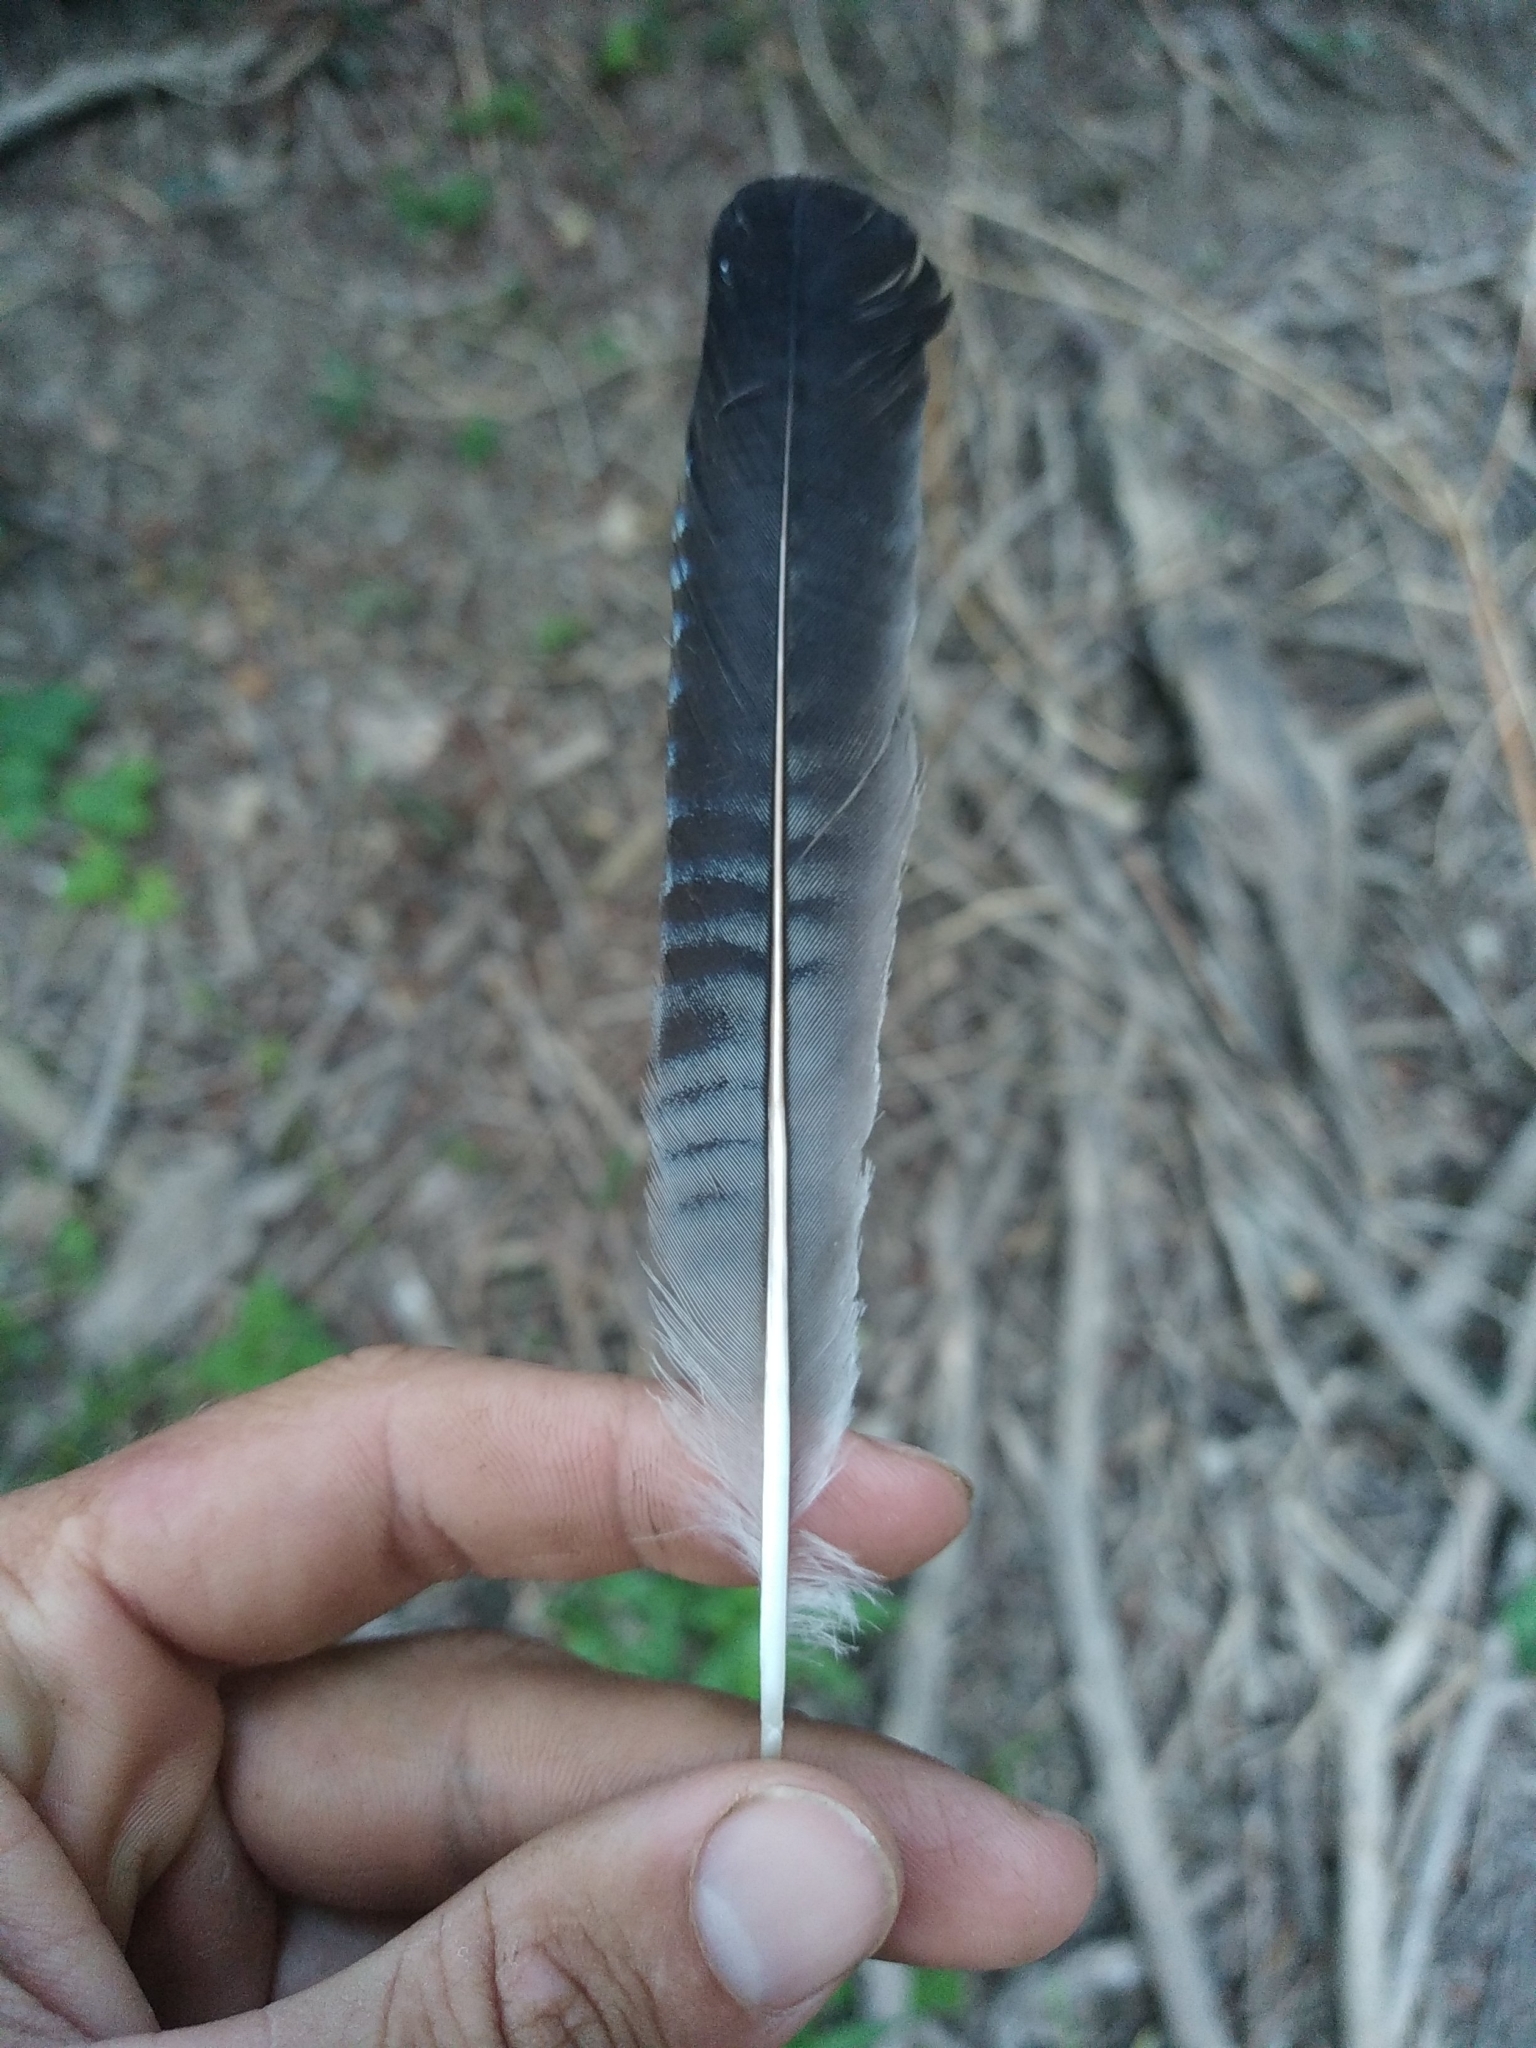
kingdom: Animalia
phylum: Chordata
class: Aves
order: Passeriformes
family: Corvidae
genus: Garrulus
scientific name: Garrulus glandarius
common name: Eurasian jay
